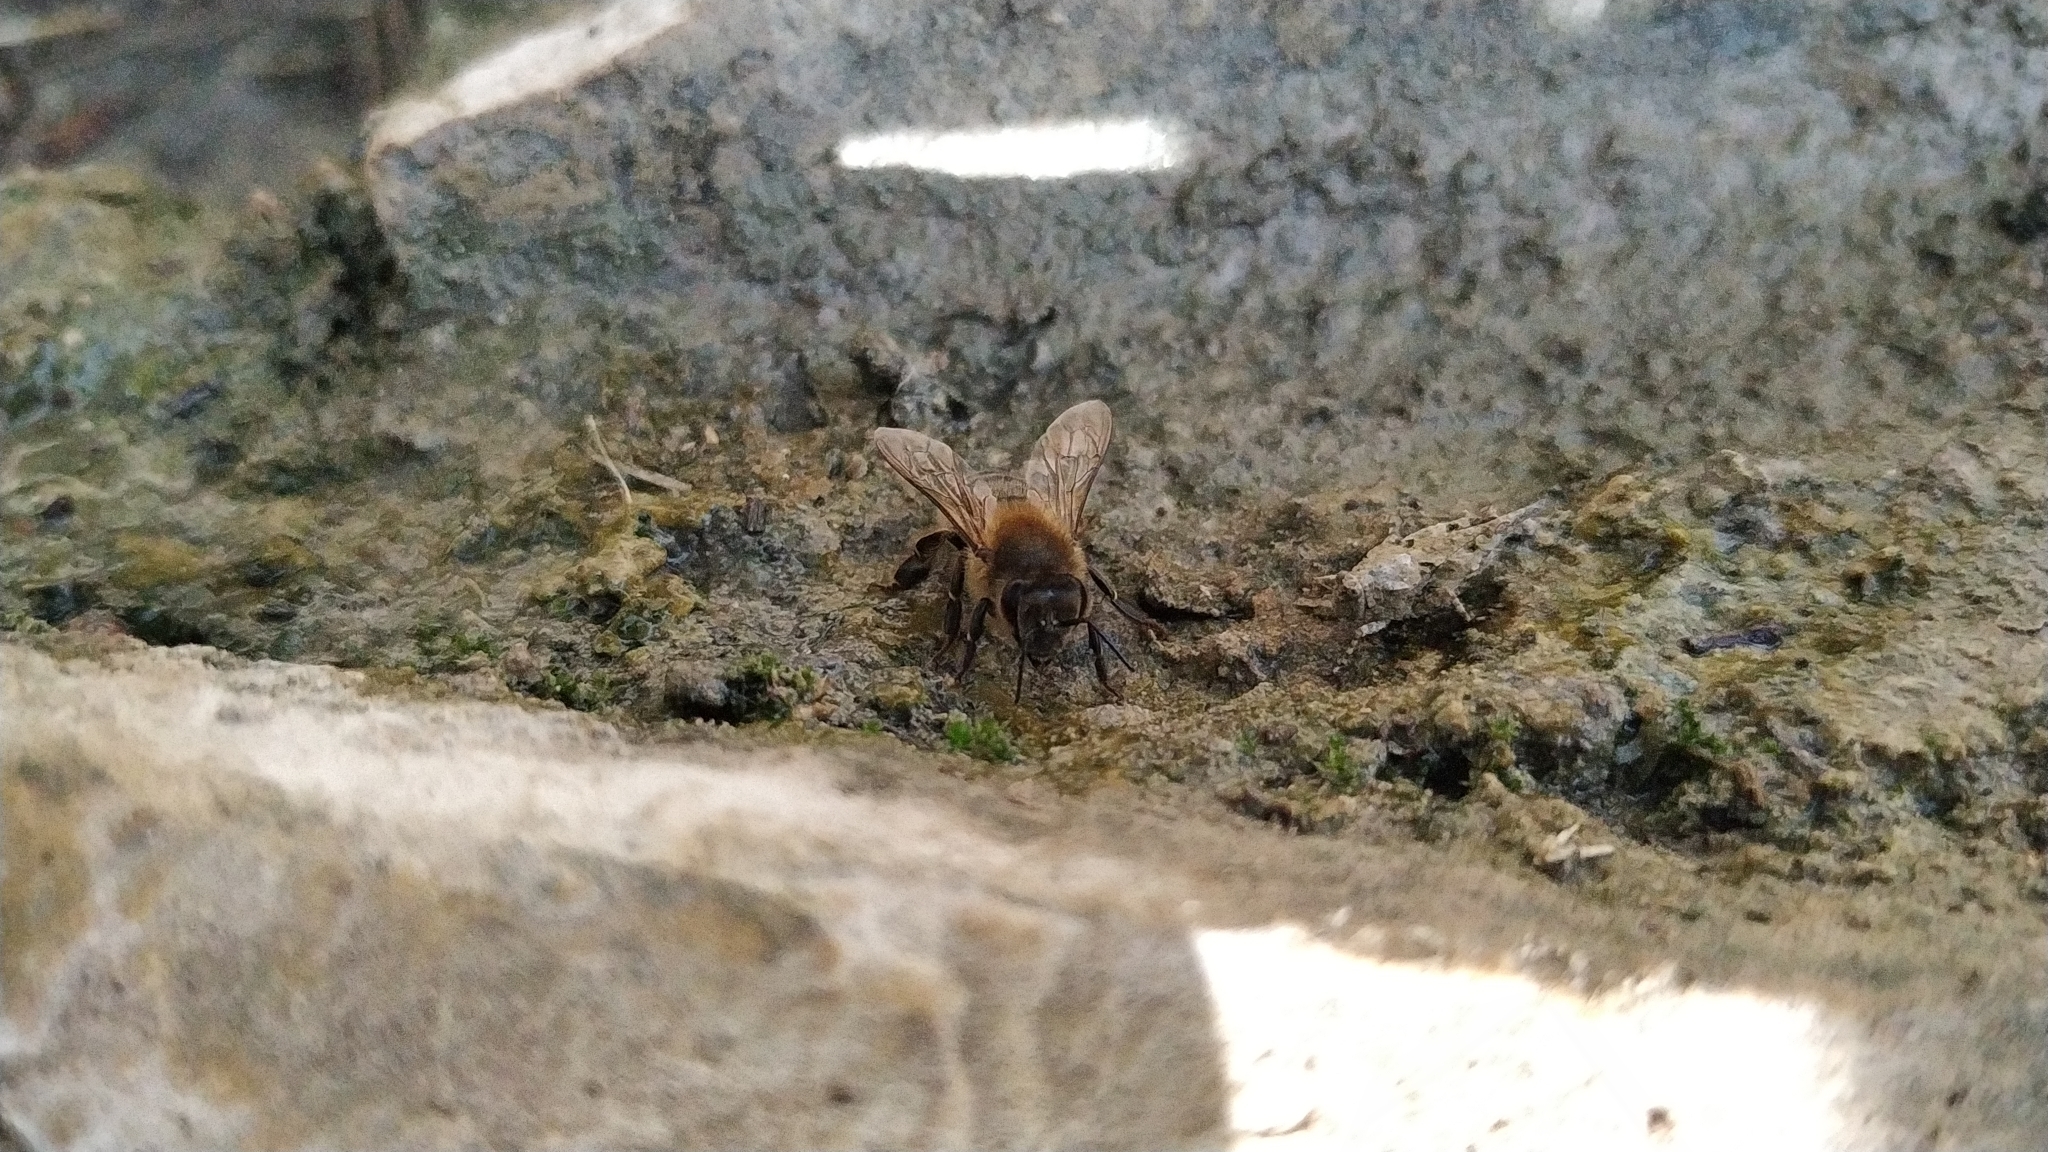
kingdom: Animalia
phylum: Arthropoda
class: Insecta
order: Hymenoptera
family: Apidae
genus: Apis
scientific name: Apis mellifera
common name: Honey bee
